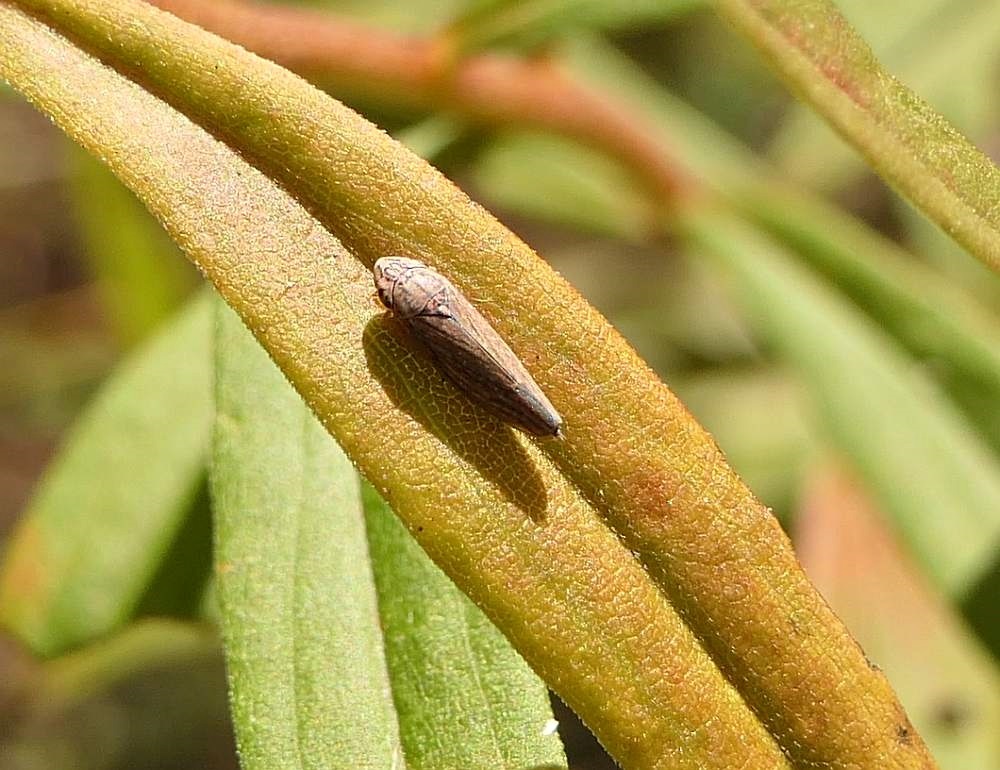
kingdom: Animalia
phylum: Arthropoda
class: Insecta
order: Hemiptera
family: Cicadellidae
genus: Neokolla
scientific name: Neokolla hieroglyphica
